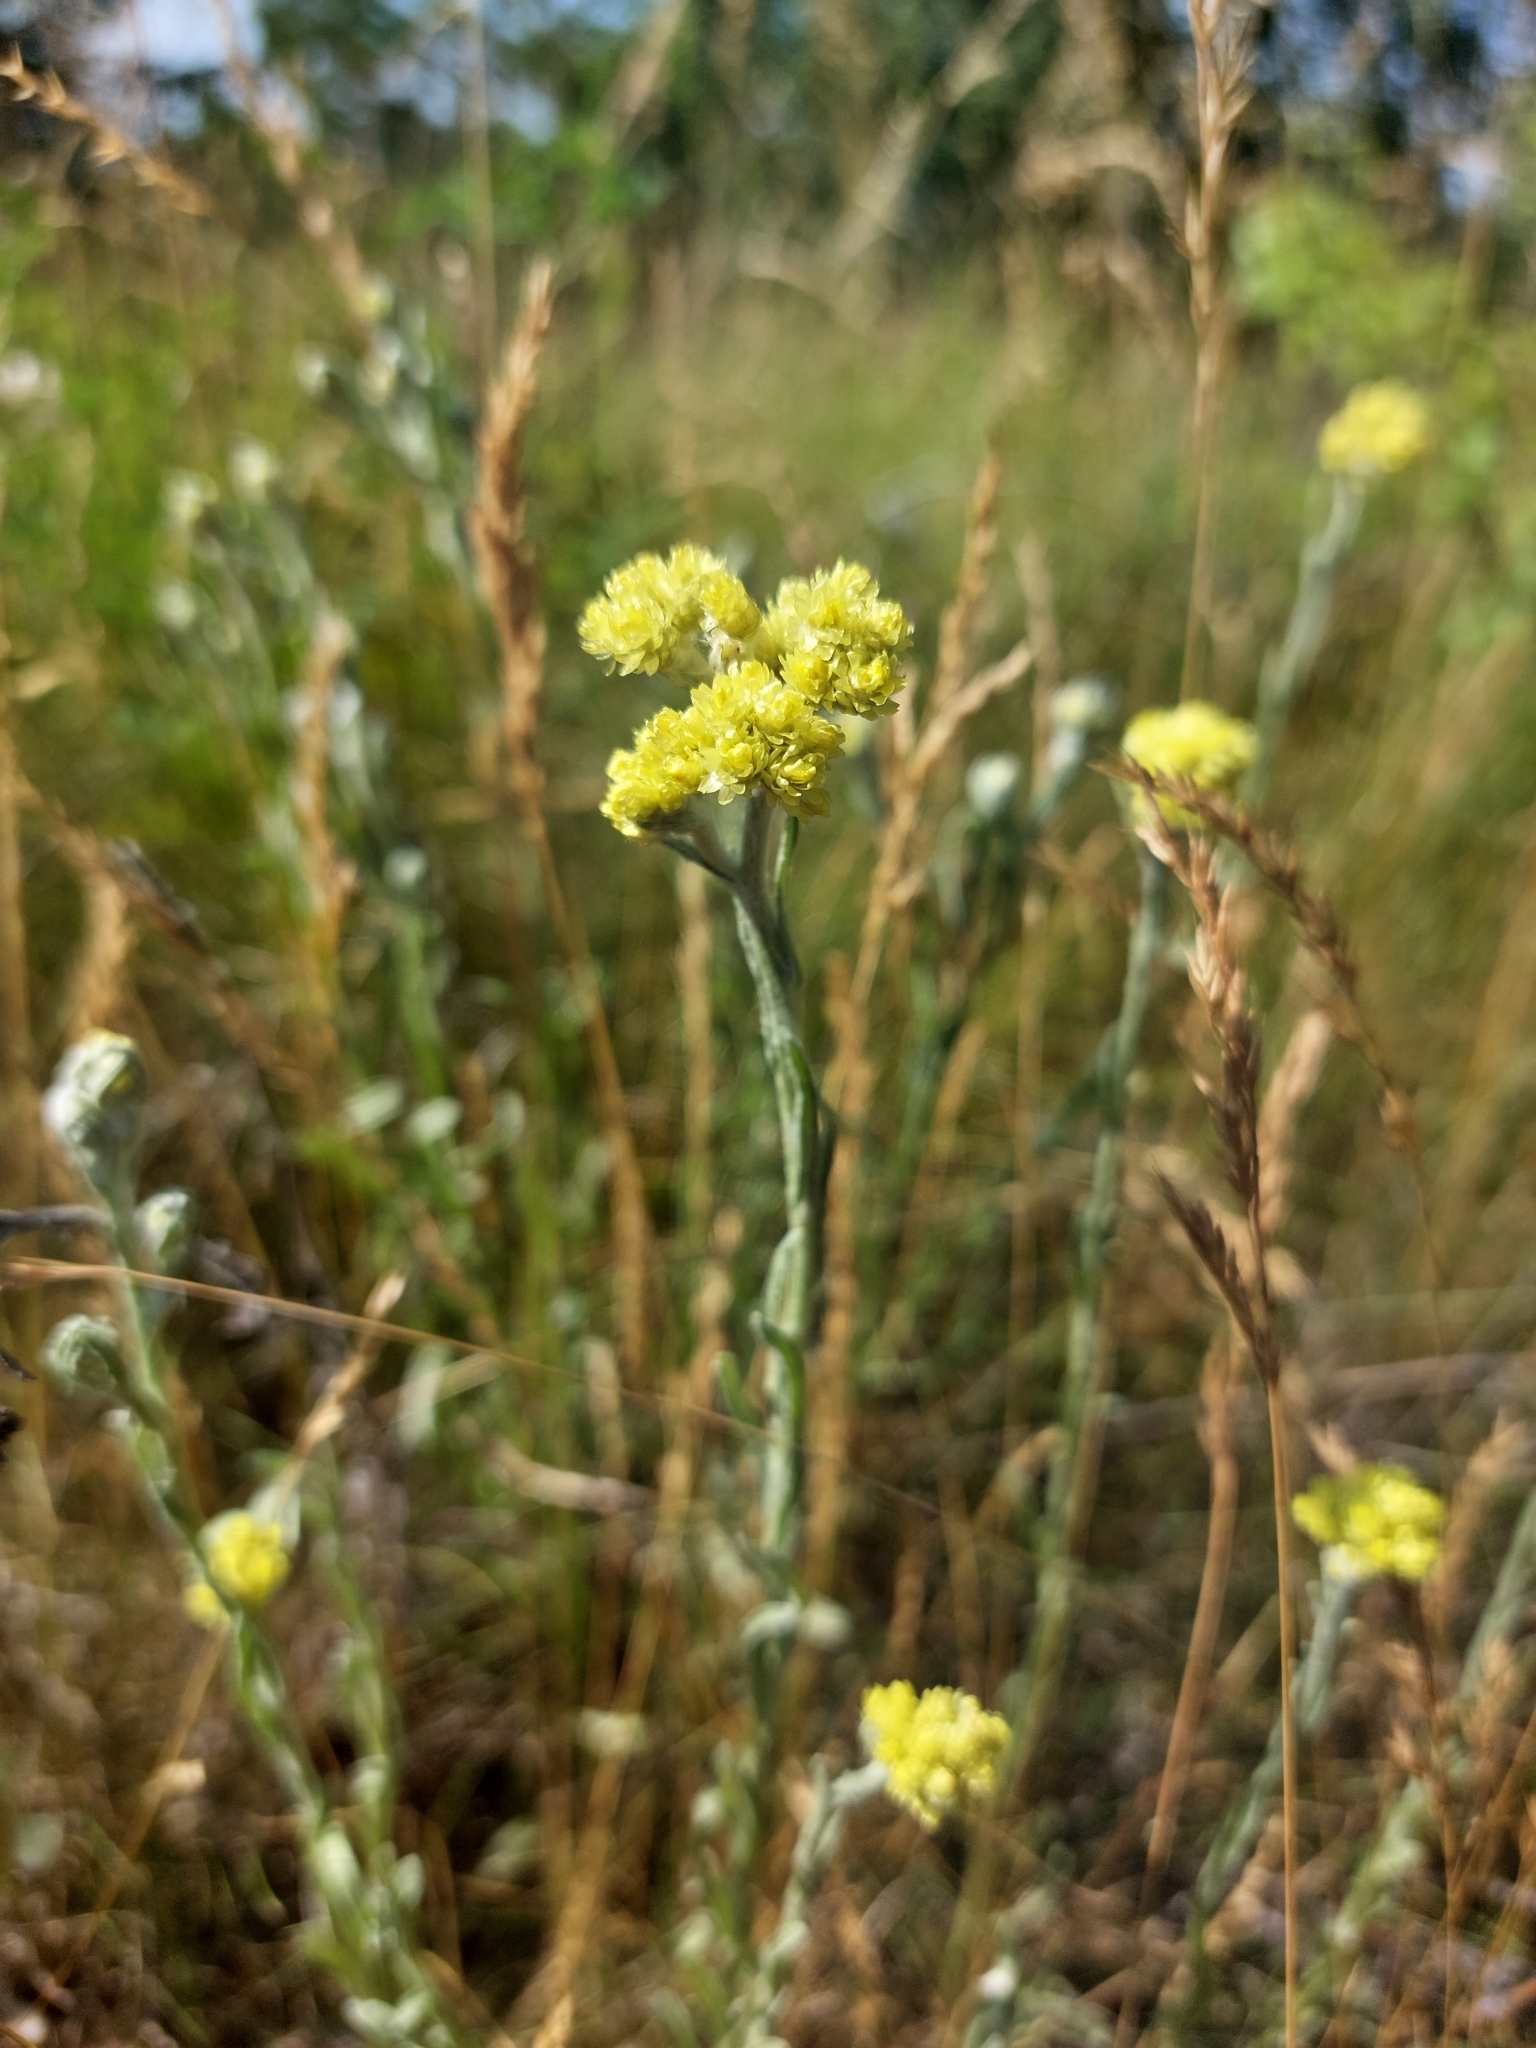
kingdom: Plantae
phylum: Tracheophyta
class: Magnoliopsida
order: Asterales
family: Asteraceae
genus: Helichrysum
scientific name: Helichrysum arenarium
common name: Strawflower
